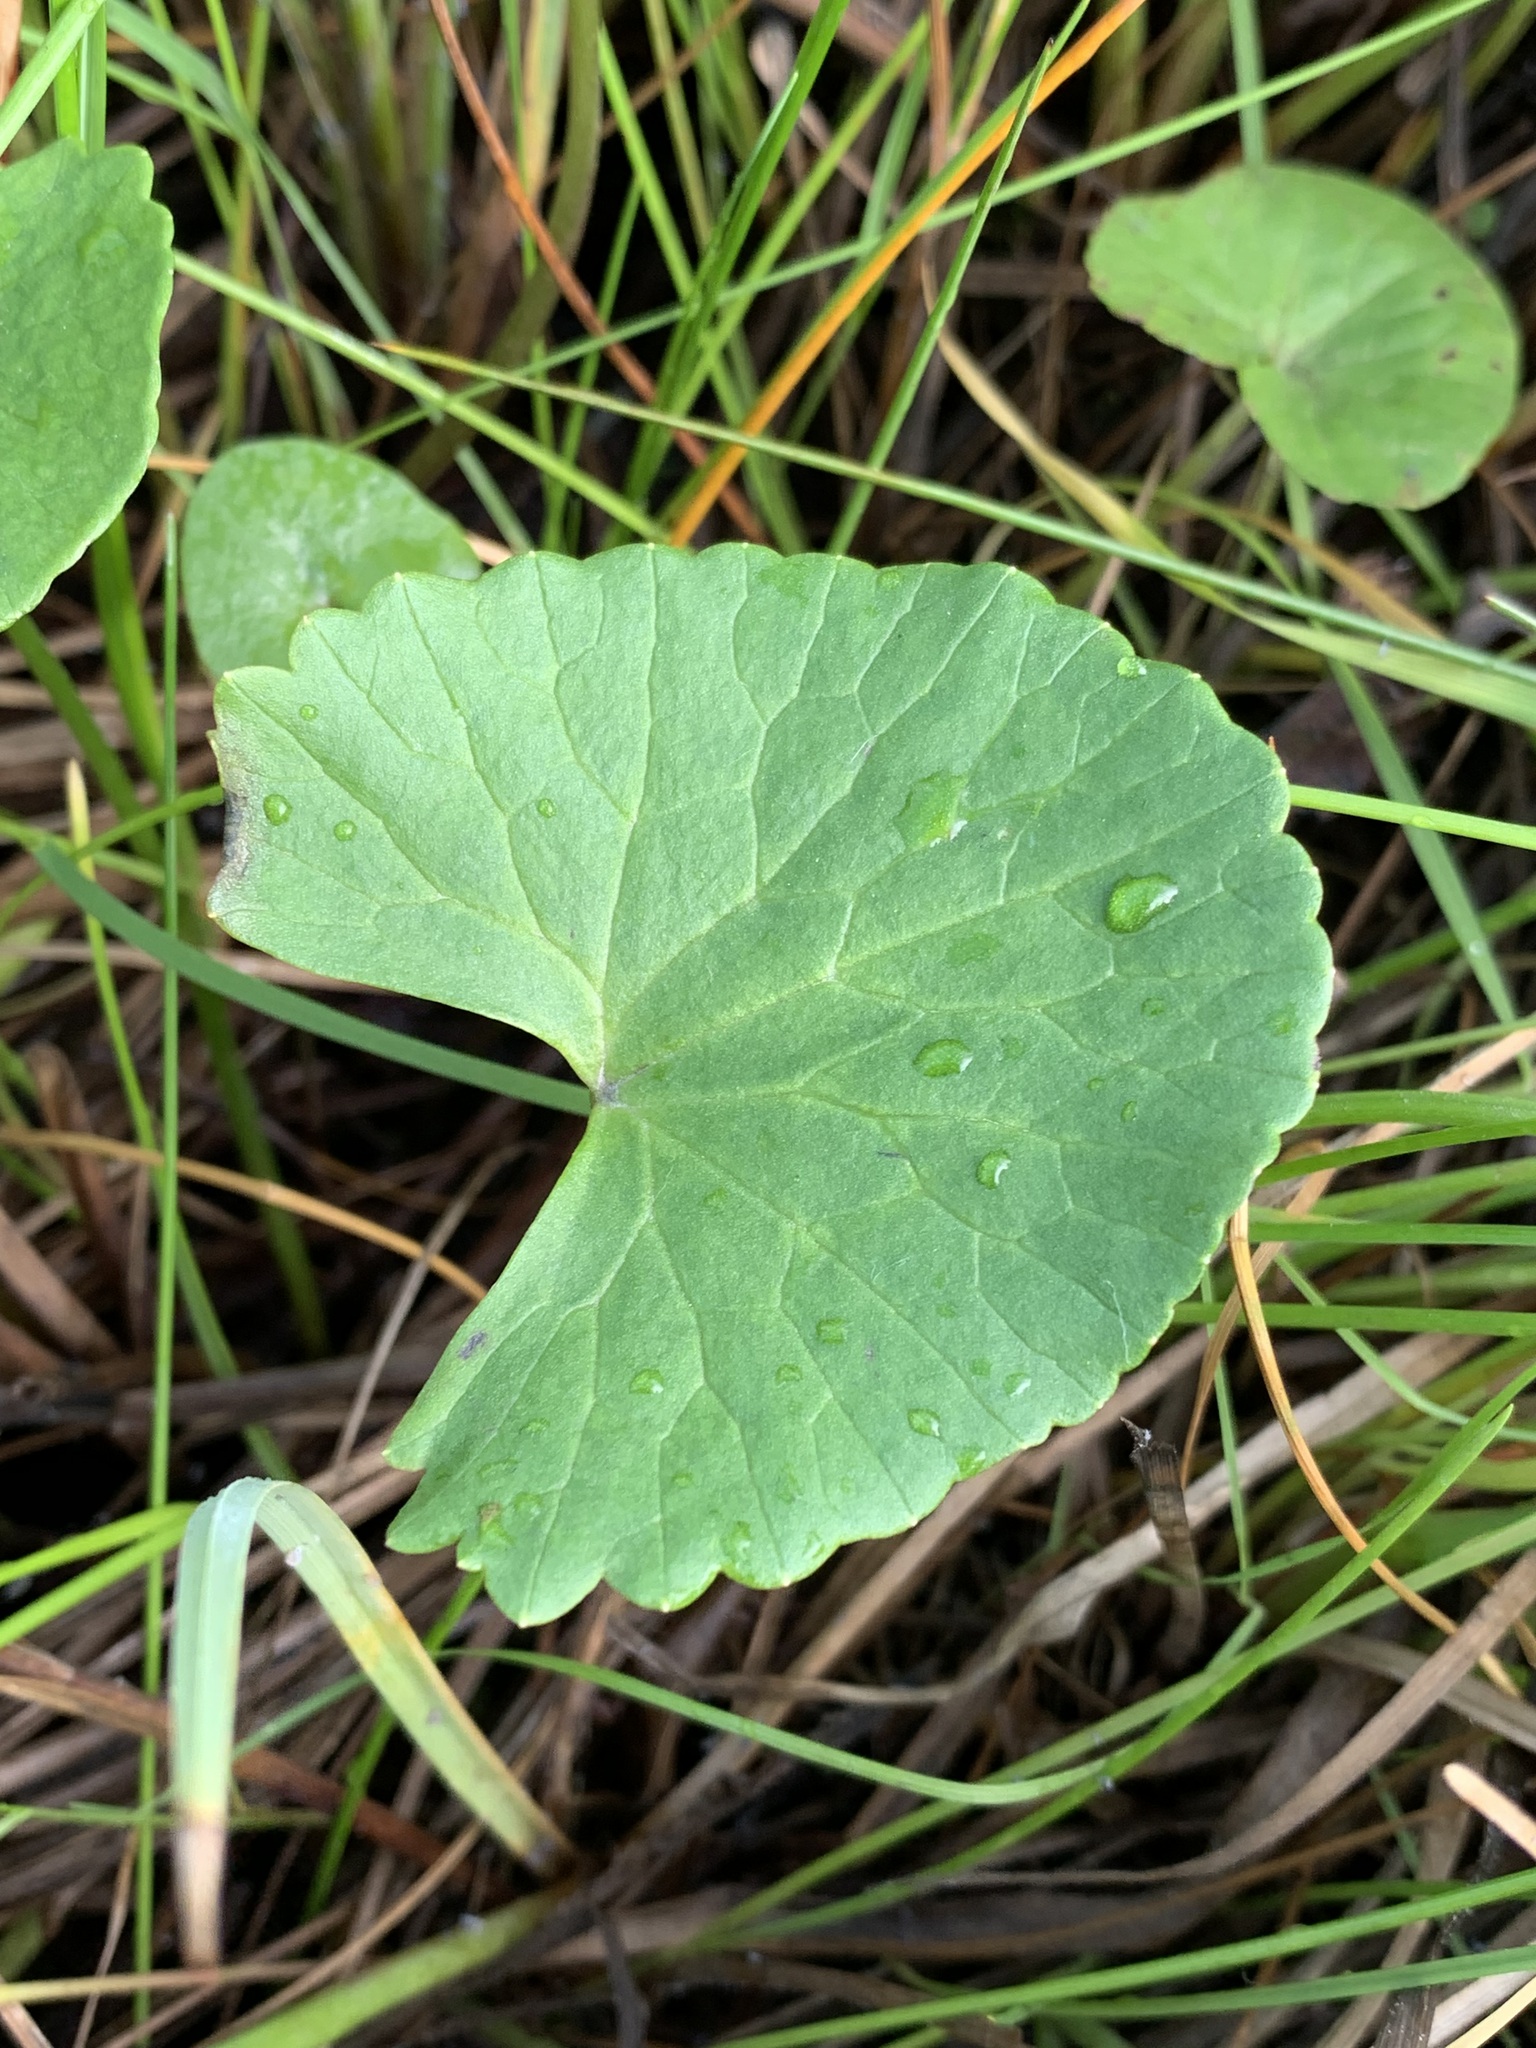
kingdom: Plantae
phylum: Tracheophyta
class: Magnoliopsida
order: Ranunculales
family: Ranunculaceae
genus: Caltha
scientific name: Caltha palustris
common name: Marsh marigold
